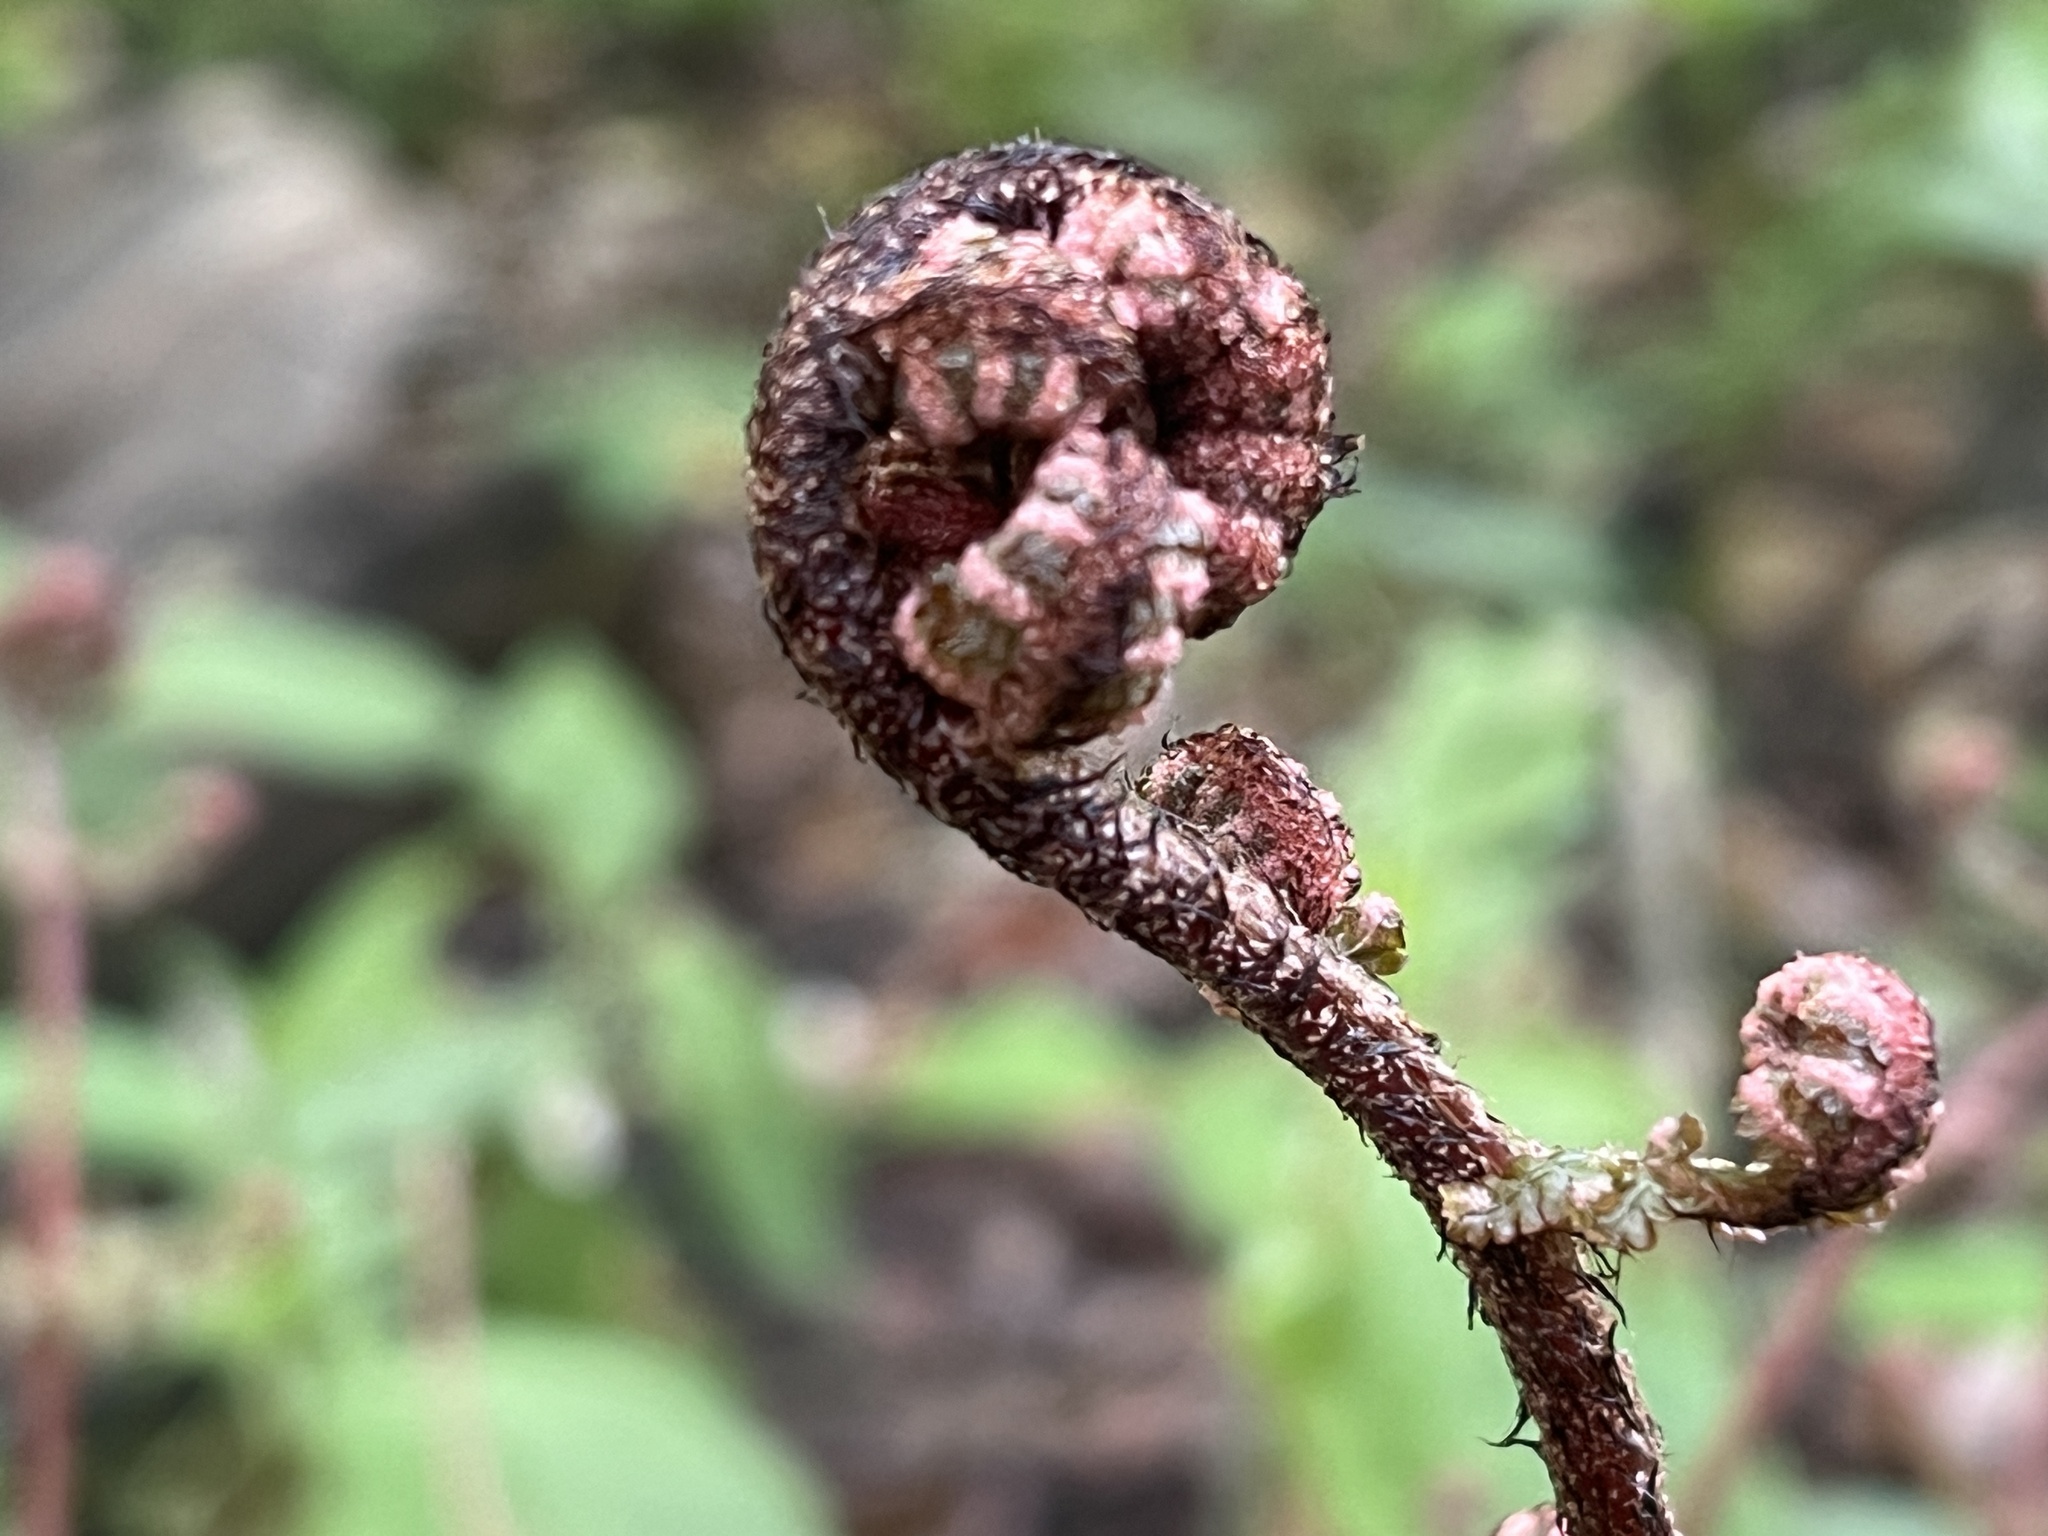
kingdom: Plantae
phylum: Tracheophyta
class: Polypodiopsida
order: Polypodiales
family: Dryopteridaceae
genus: Dryopteris
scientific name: Dryopteris erythrosora
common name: Autumn fern
